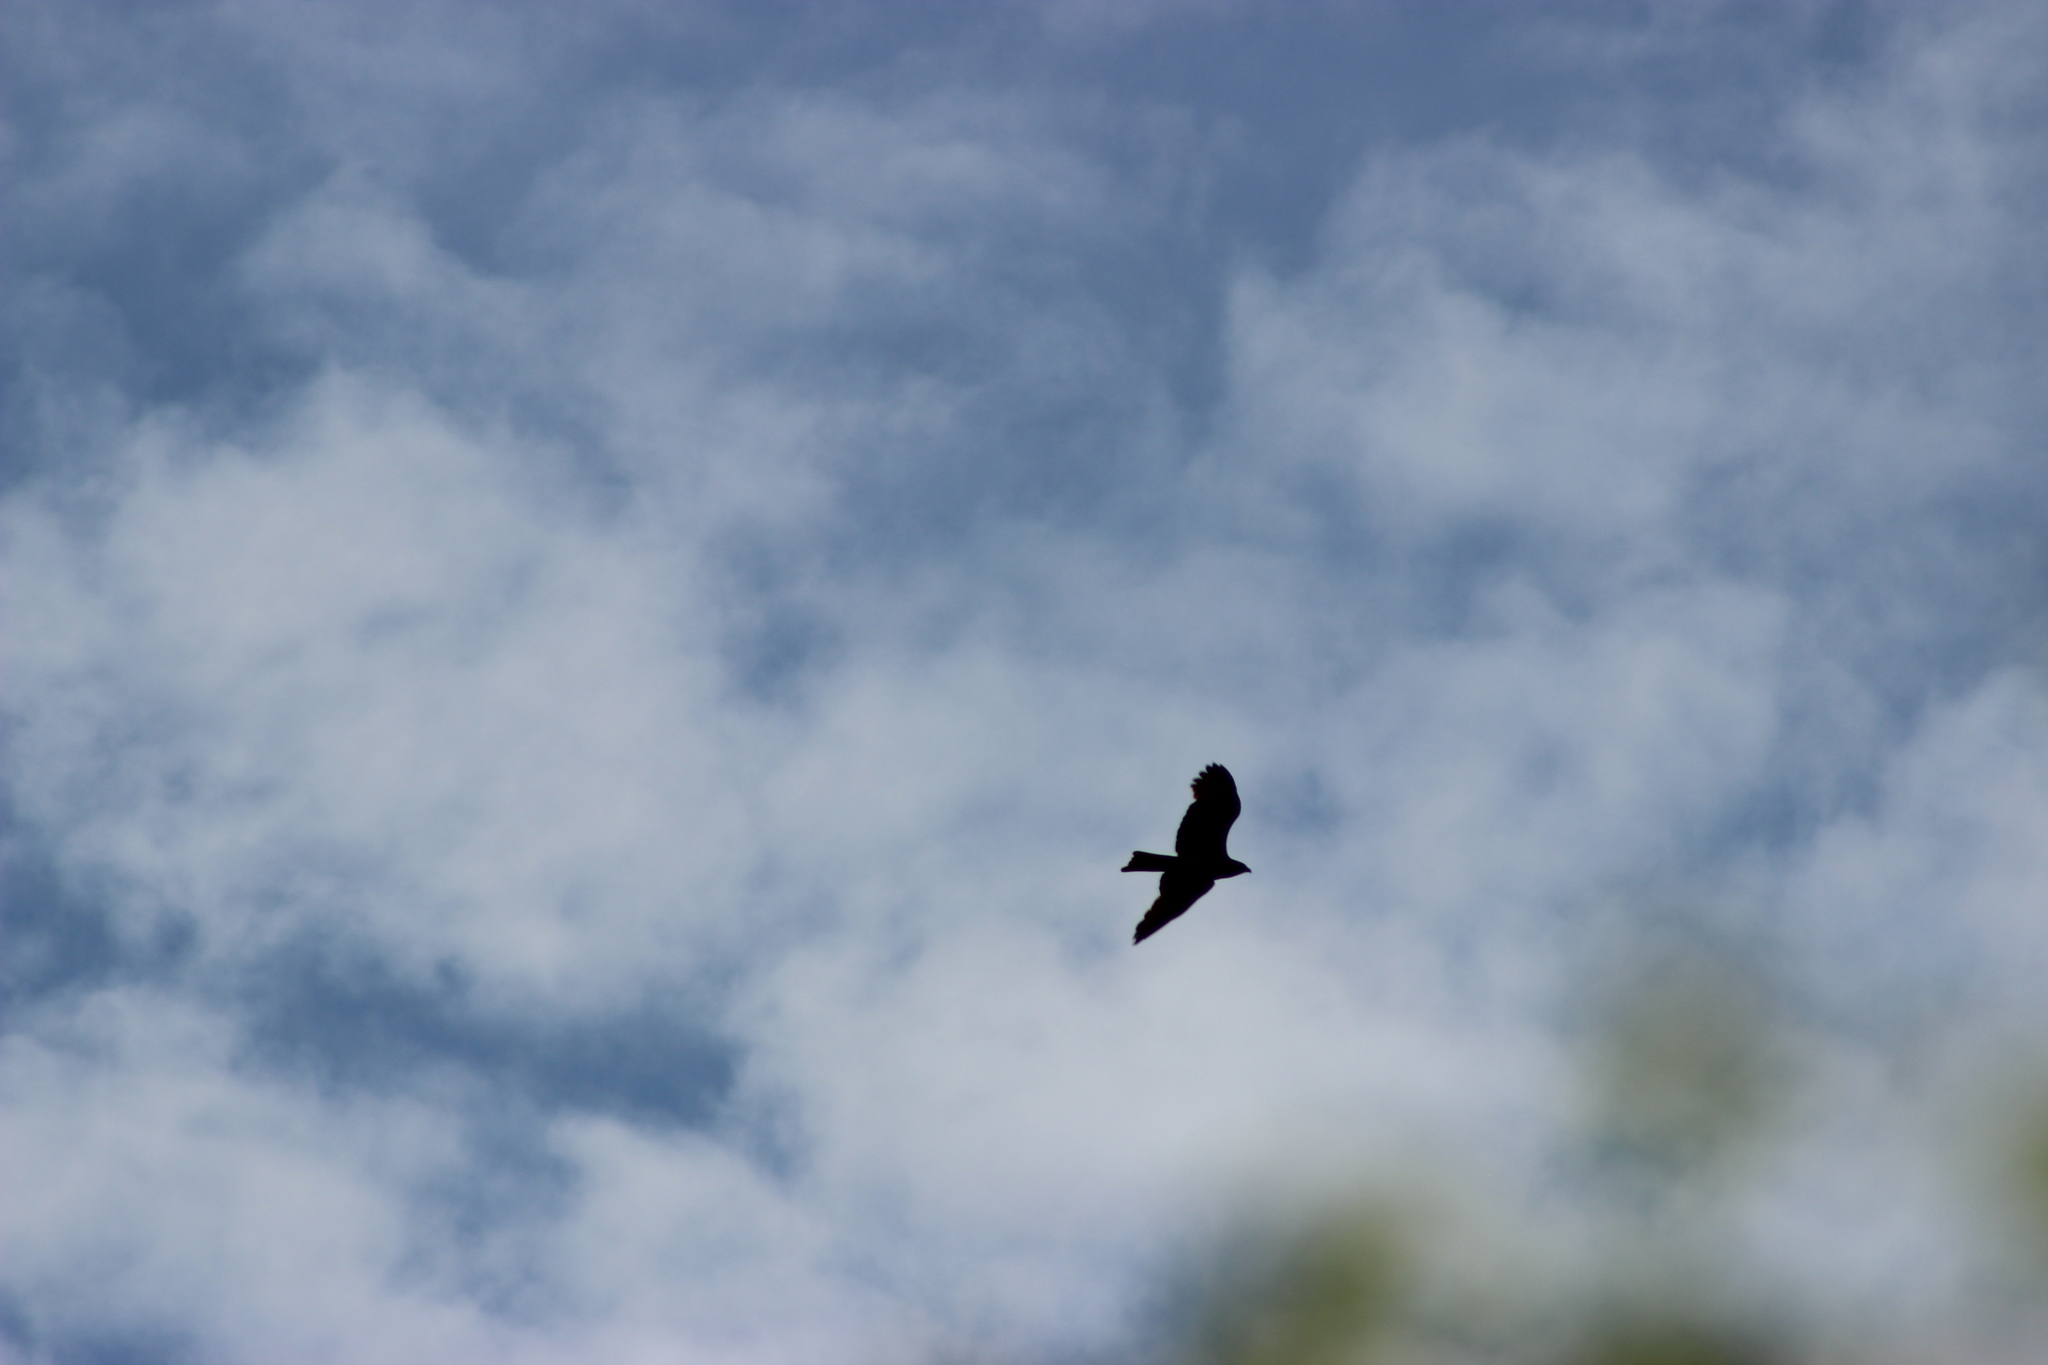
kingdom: Animalia
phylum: Chordata
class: Aves
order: Accipitriformes
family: Accipitridae
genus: Milvus
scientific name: Milvus migrans
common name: Black kite
